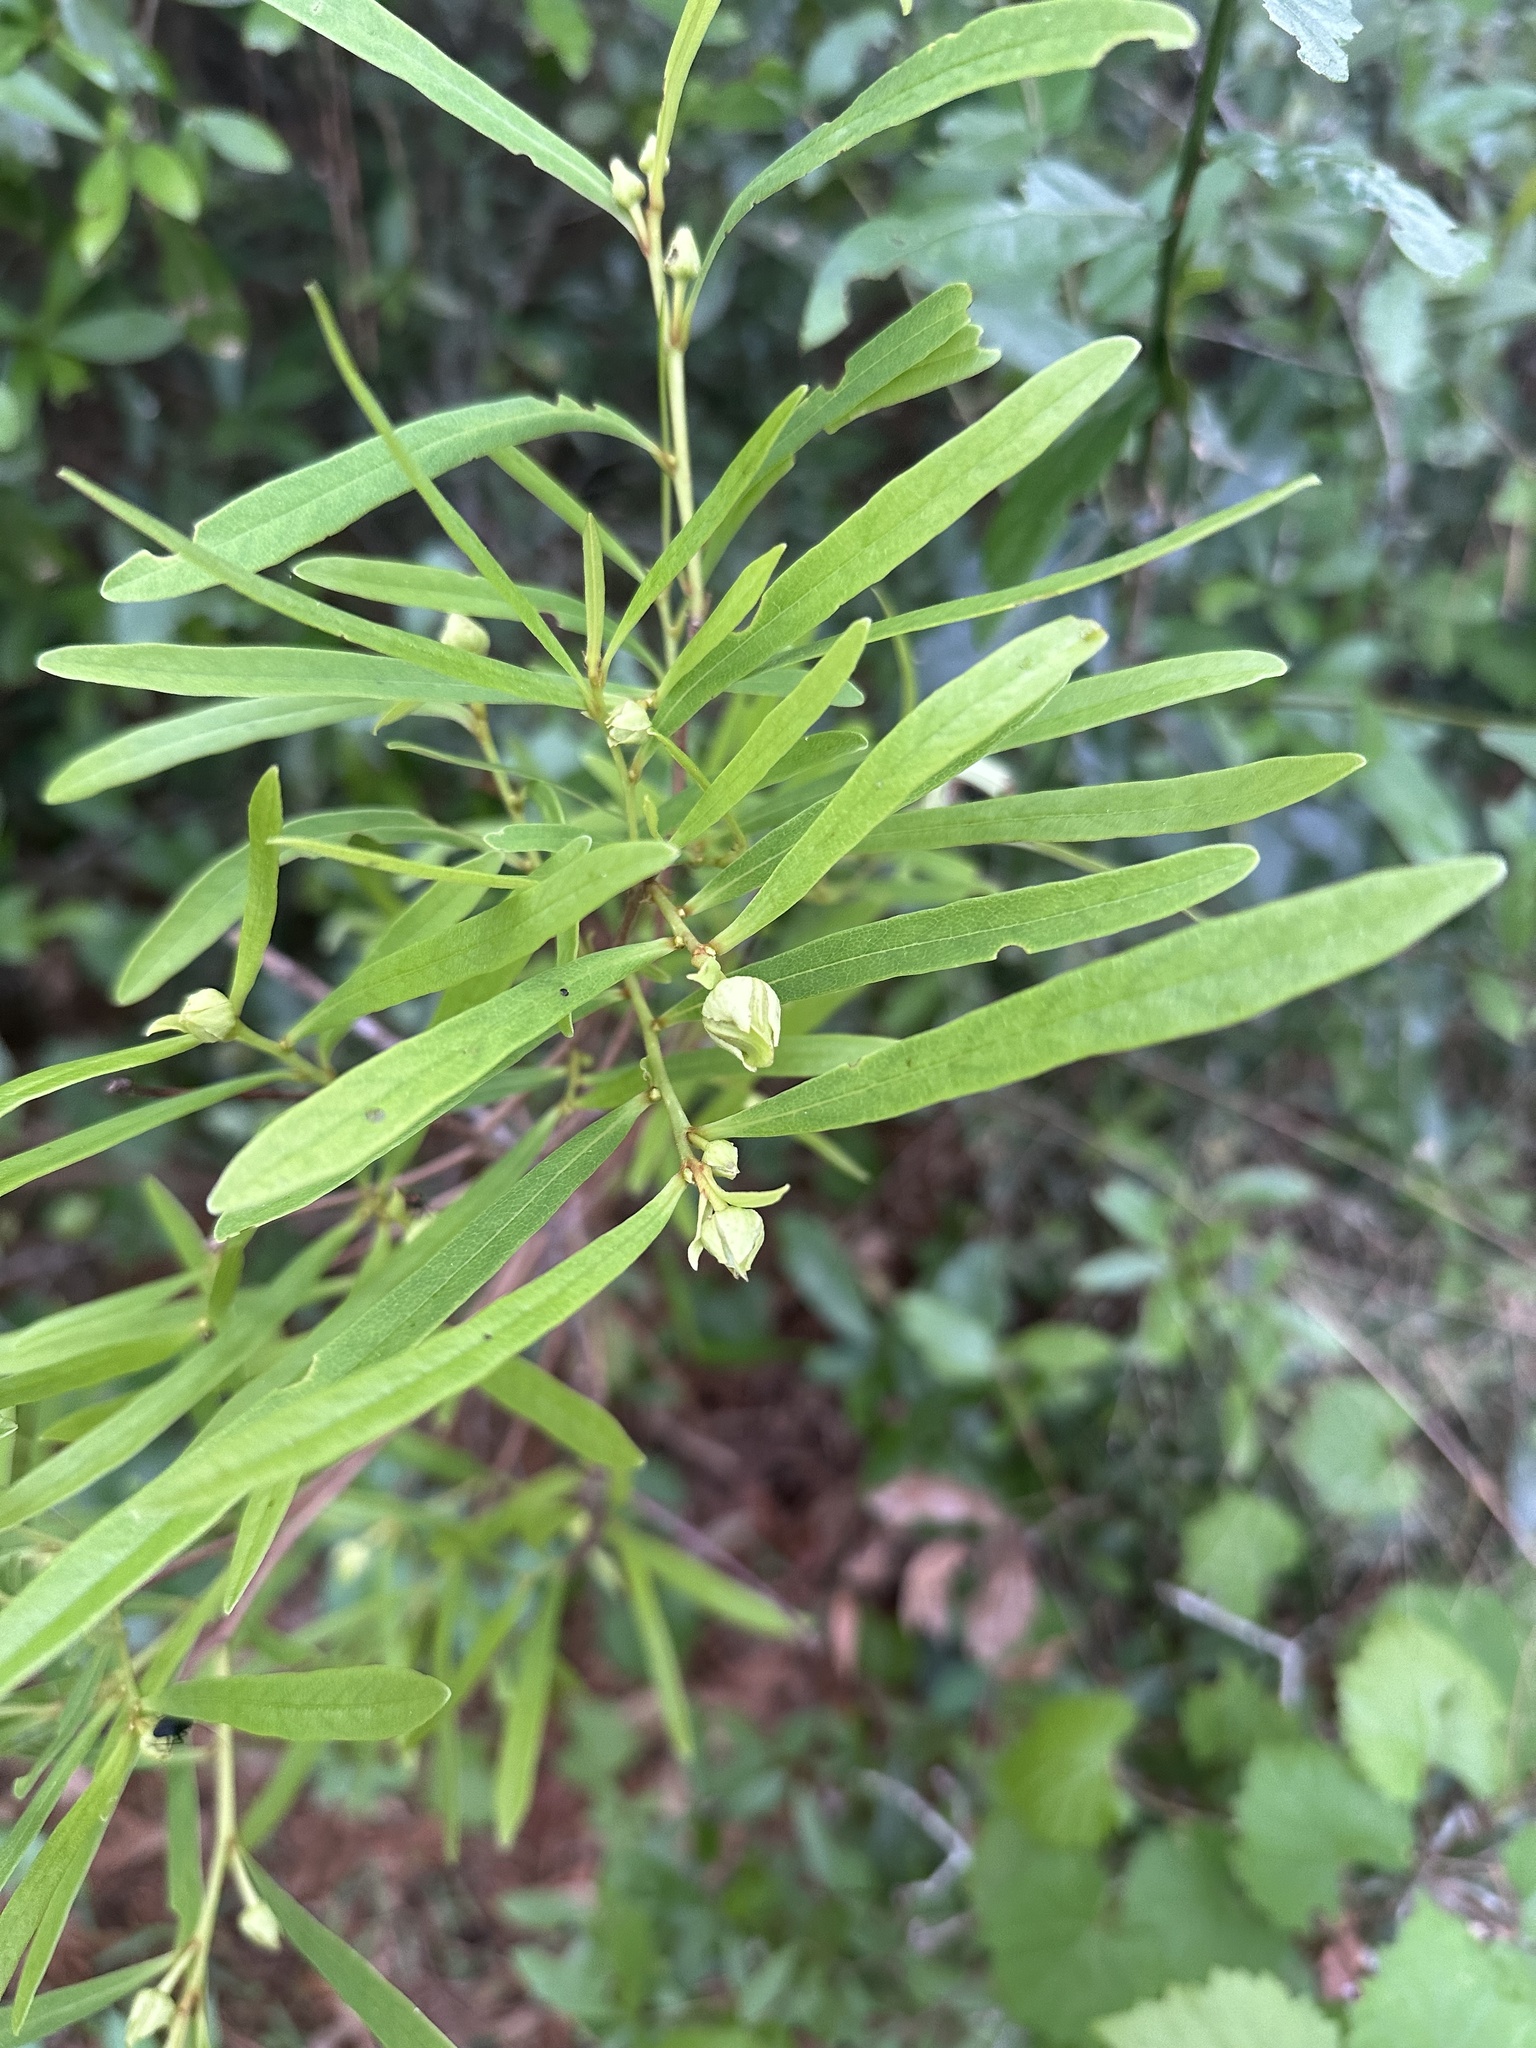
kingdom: Plantae
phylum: Tracheophyta
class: Magnoliopsida
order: Magnoliales
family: Annonaceae
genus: Asimina
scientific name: Asimina longifolia
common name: Polecatbush
